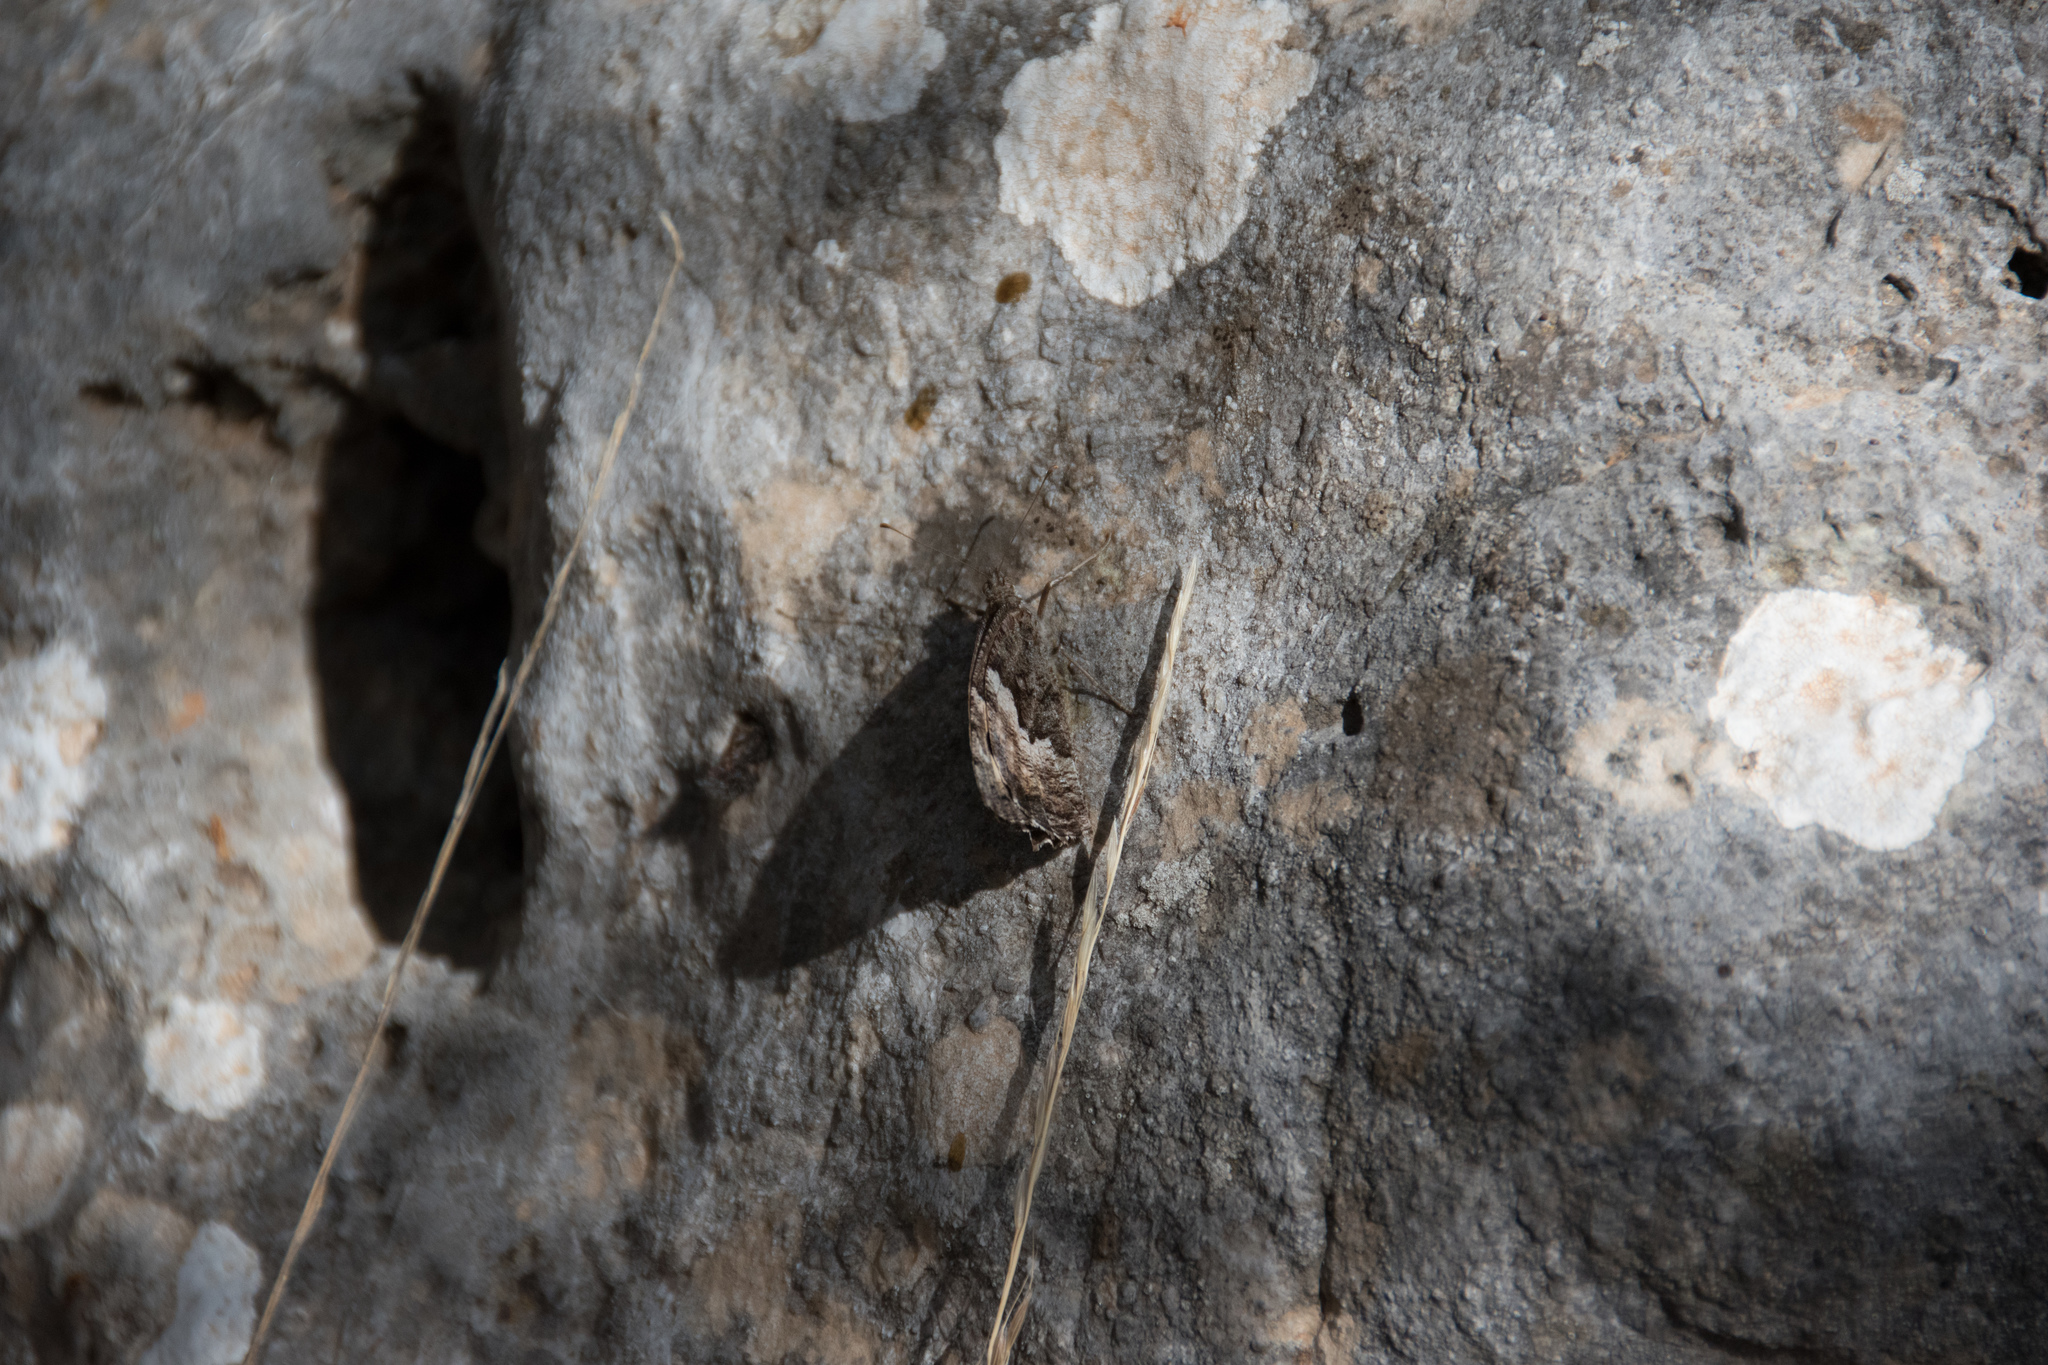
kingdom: Animalia
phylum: Arthropoda
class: Insecta
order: Lepidoptera
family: Nymphalidae
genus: Hipparchia
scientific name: Hipparchia cretica
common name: Cretan grayling
